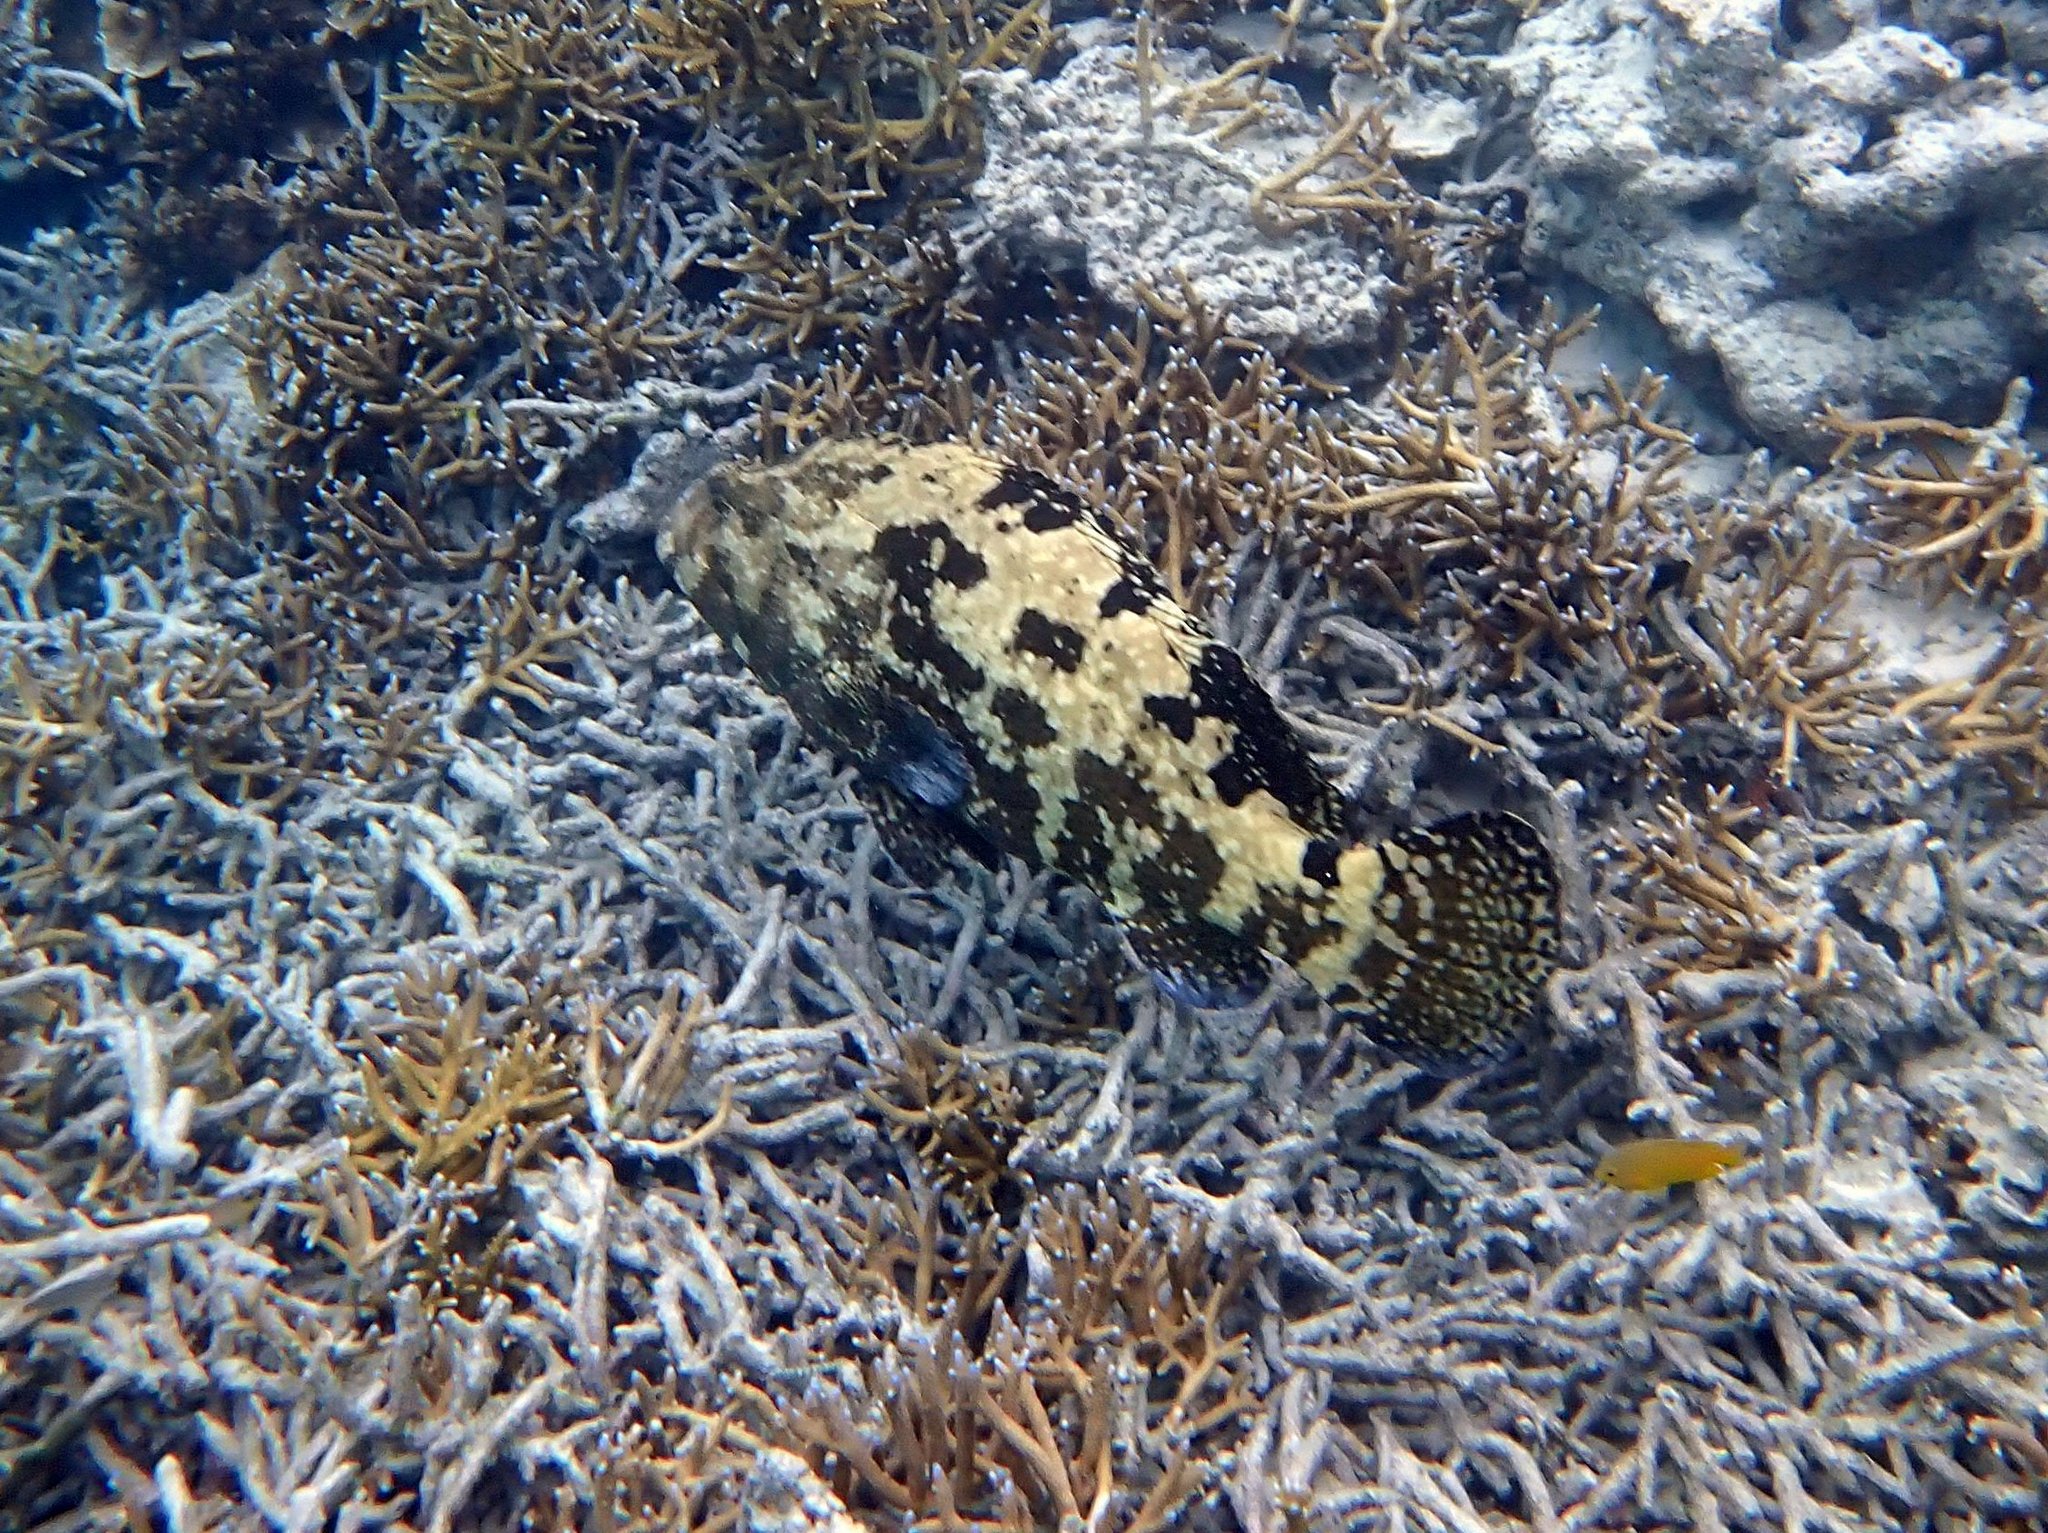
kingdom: Animalia
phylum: Chordata
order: Perciformes
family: Serranidae
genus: Epinephelus
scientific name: Epinephelus fuscoguttatus
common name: Brown-marbled grouper
